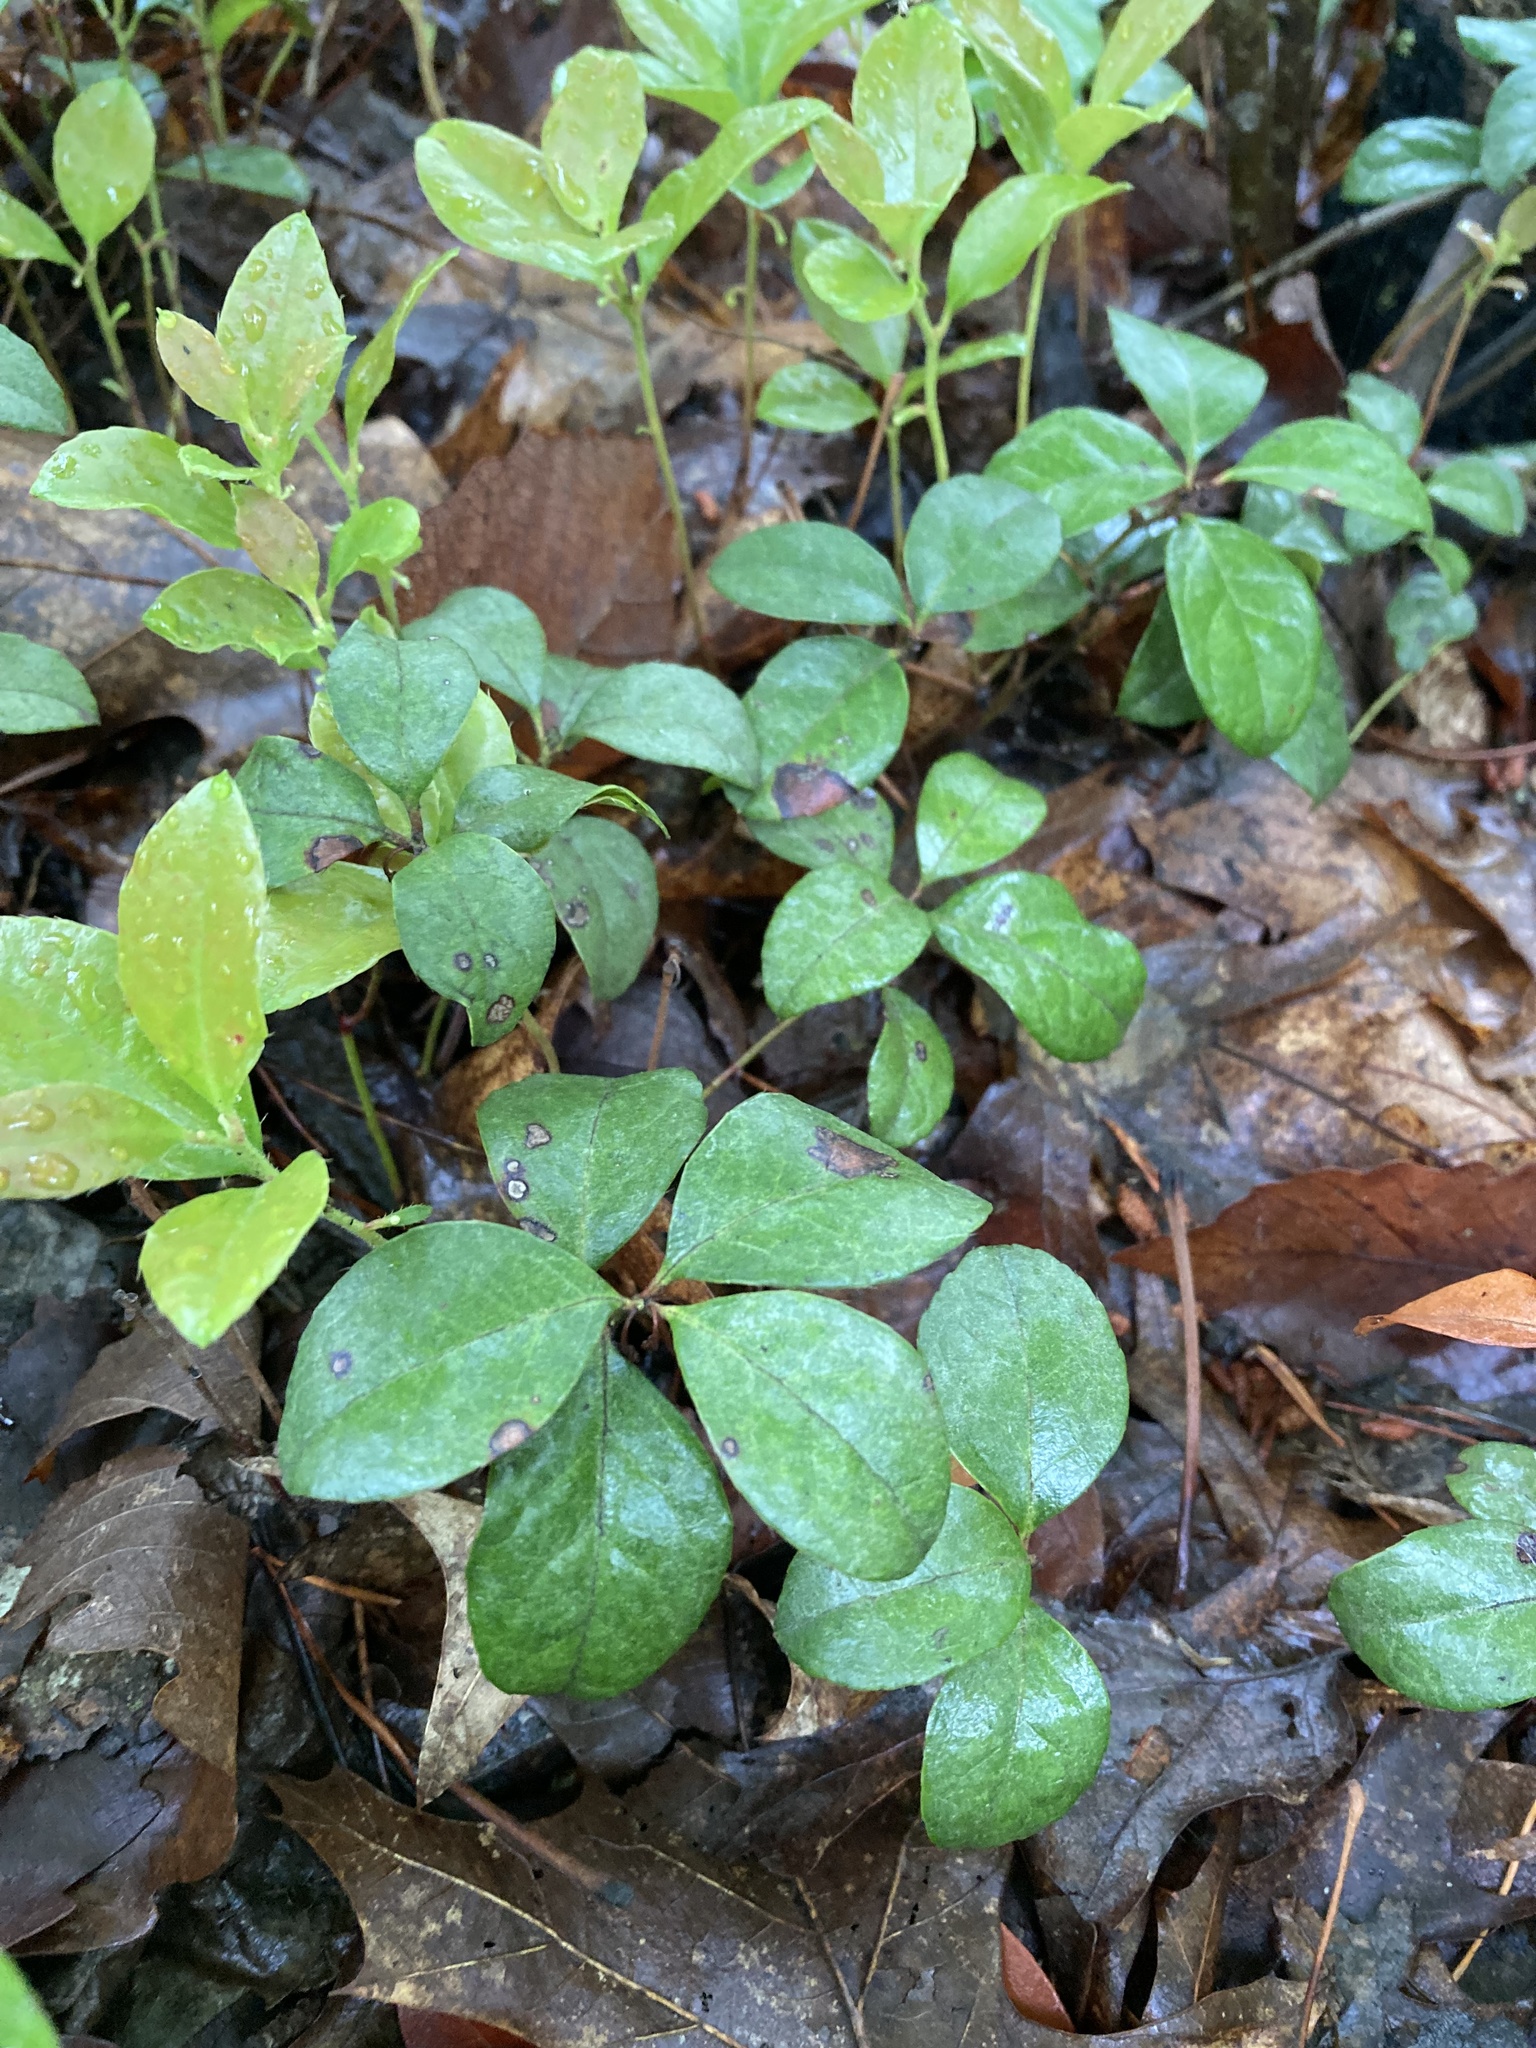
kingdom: Plantae
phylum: Tracheophyta
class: Magnoliopsida
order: Ericales
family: Ericaceae
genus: Gaultheria
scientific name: Gaultheria procumbens
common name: Checkerberry
